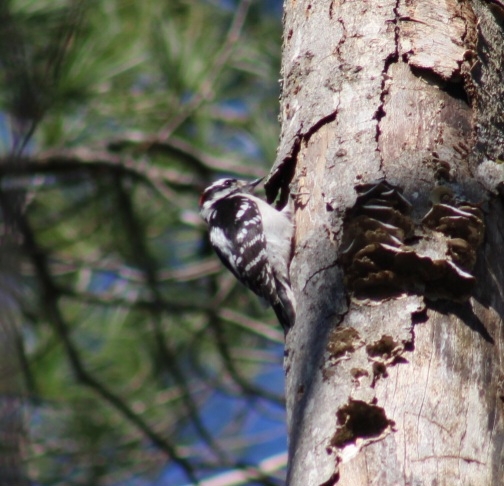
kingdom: Animalia
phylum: Chordata
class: Aves
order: Piciformes
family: Picidae
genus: Dryobates
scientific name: Dryobates pubescens
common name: Downy woodpecker
